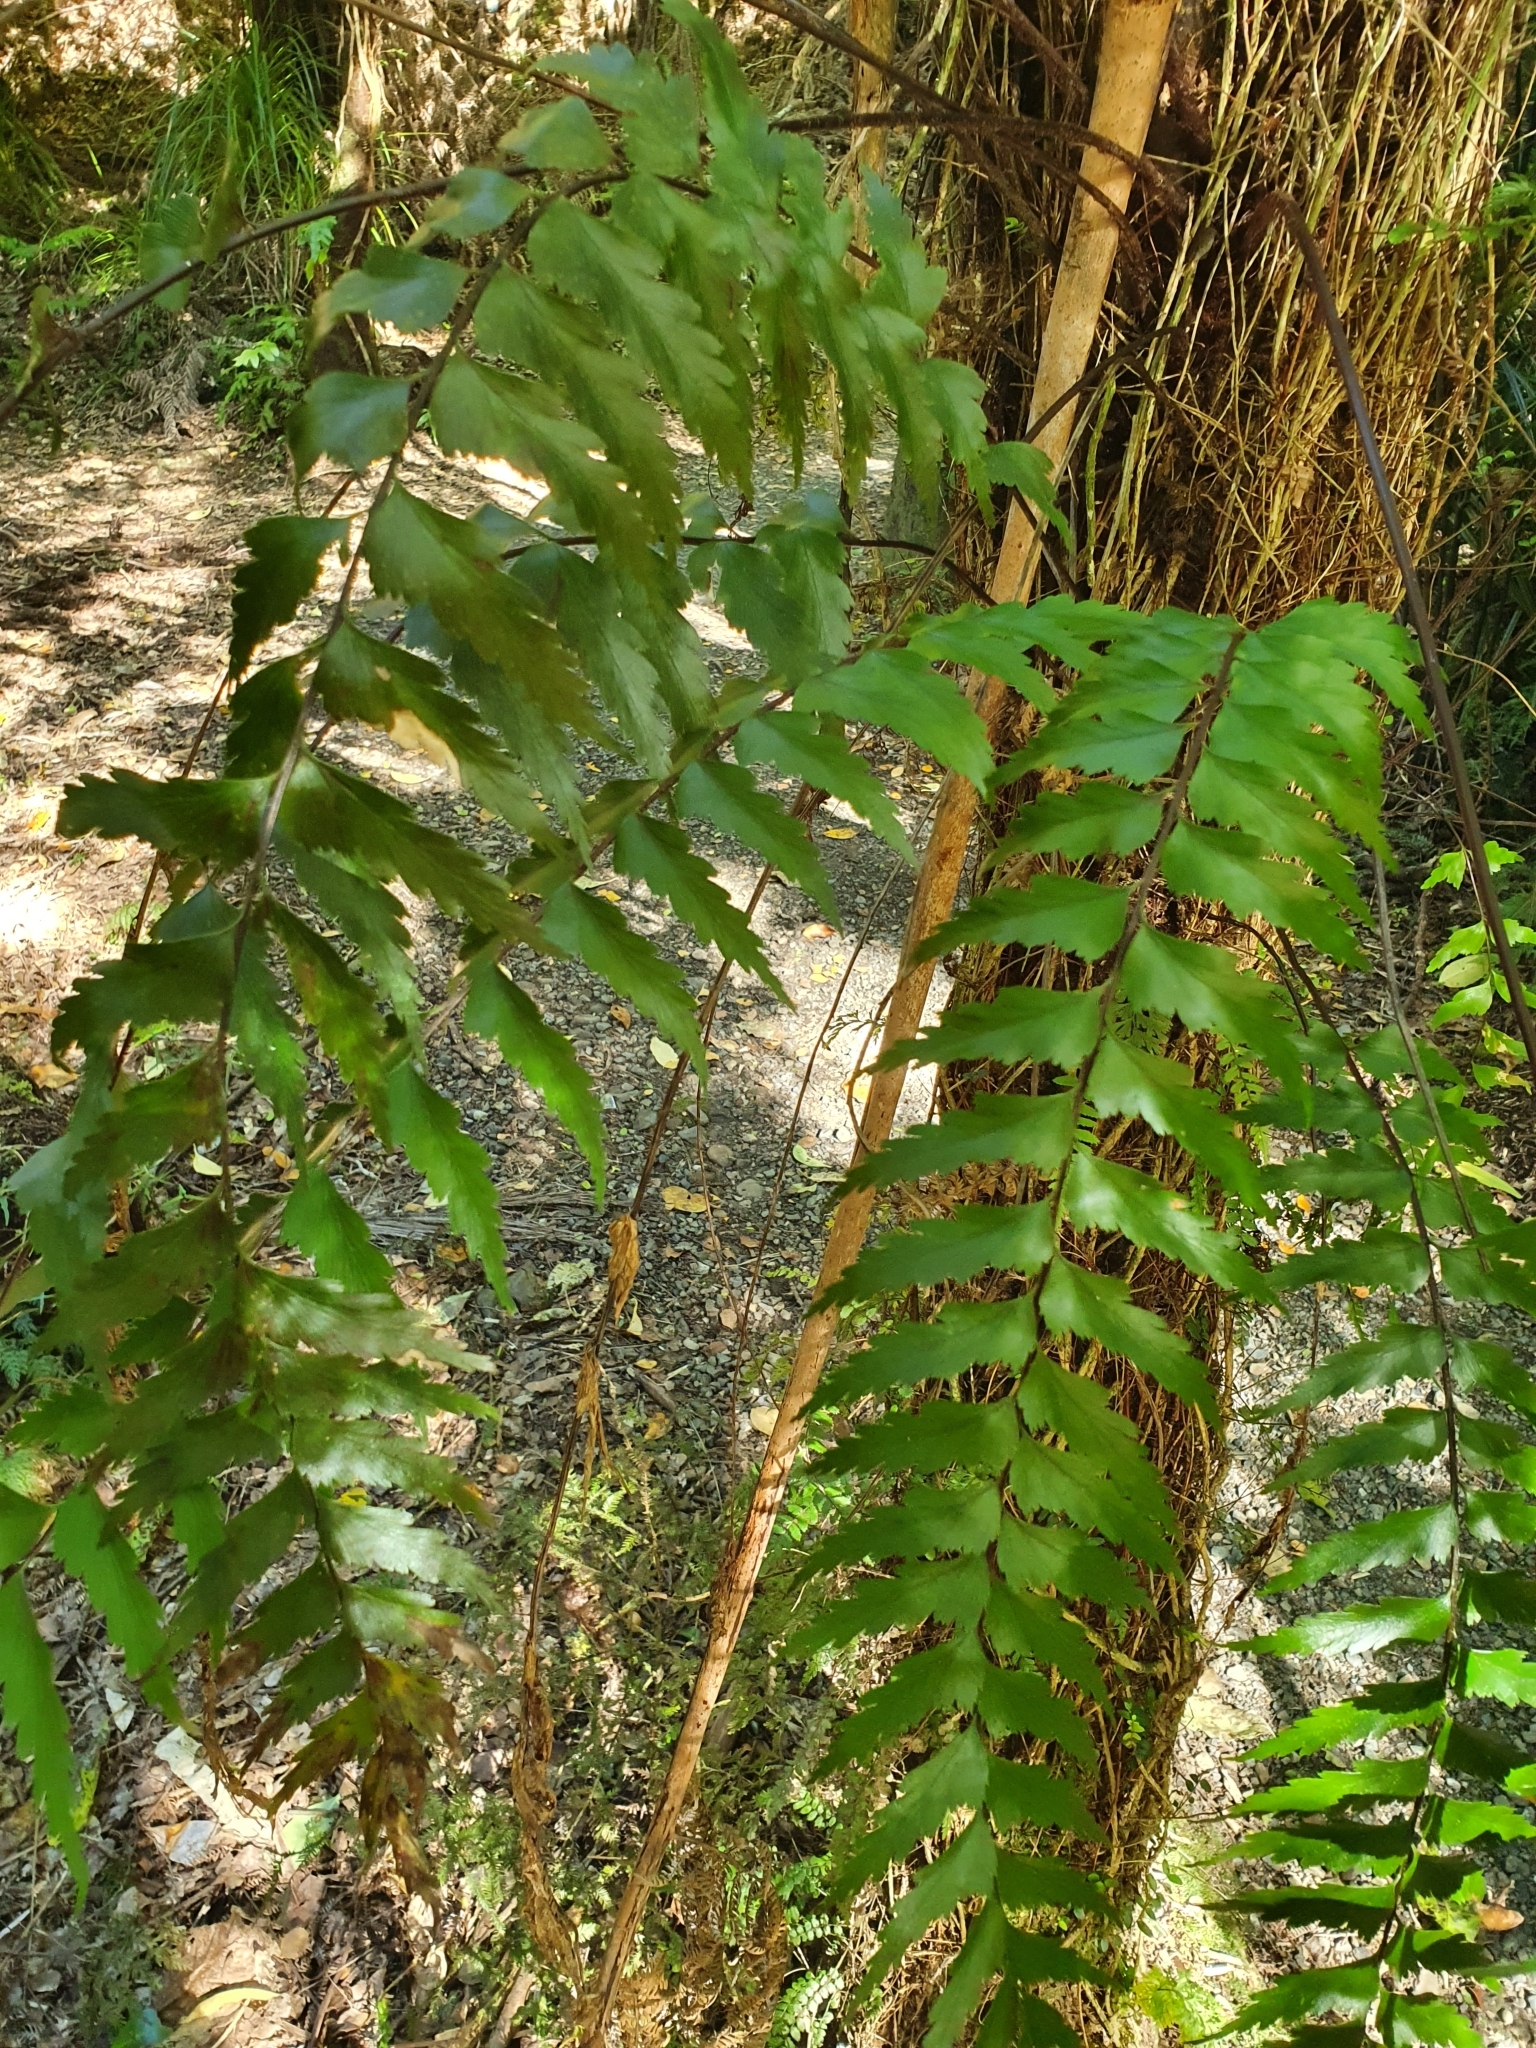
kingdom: Plantae
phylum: Tracheophyta
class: Polypodiopsida
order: Polypodiales
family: Aspleniaceae
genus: Asplenium
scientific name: Asplenium polyodon
